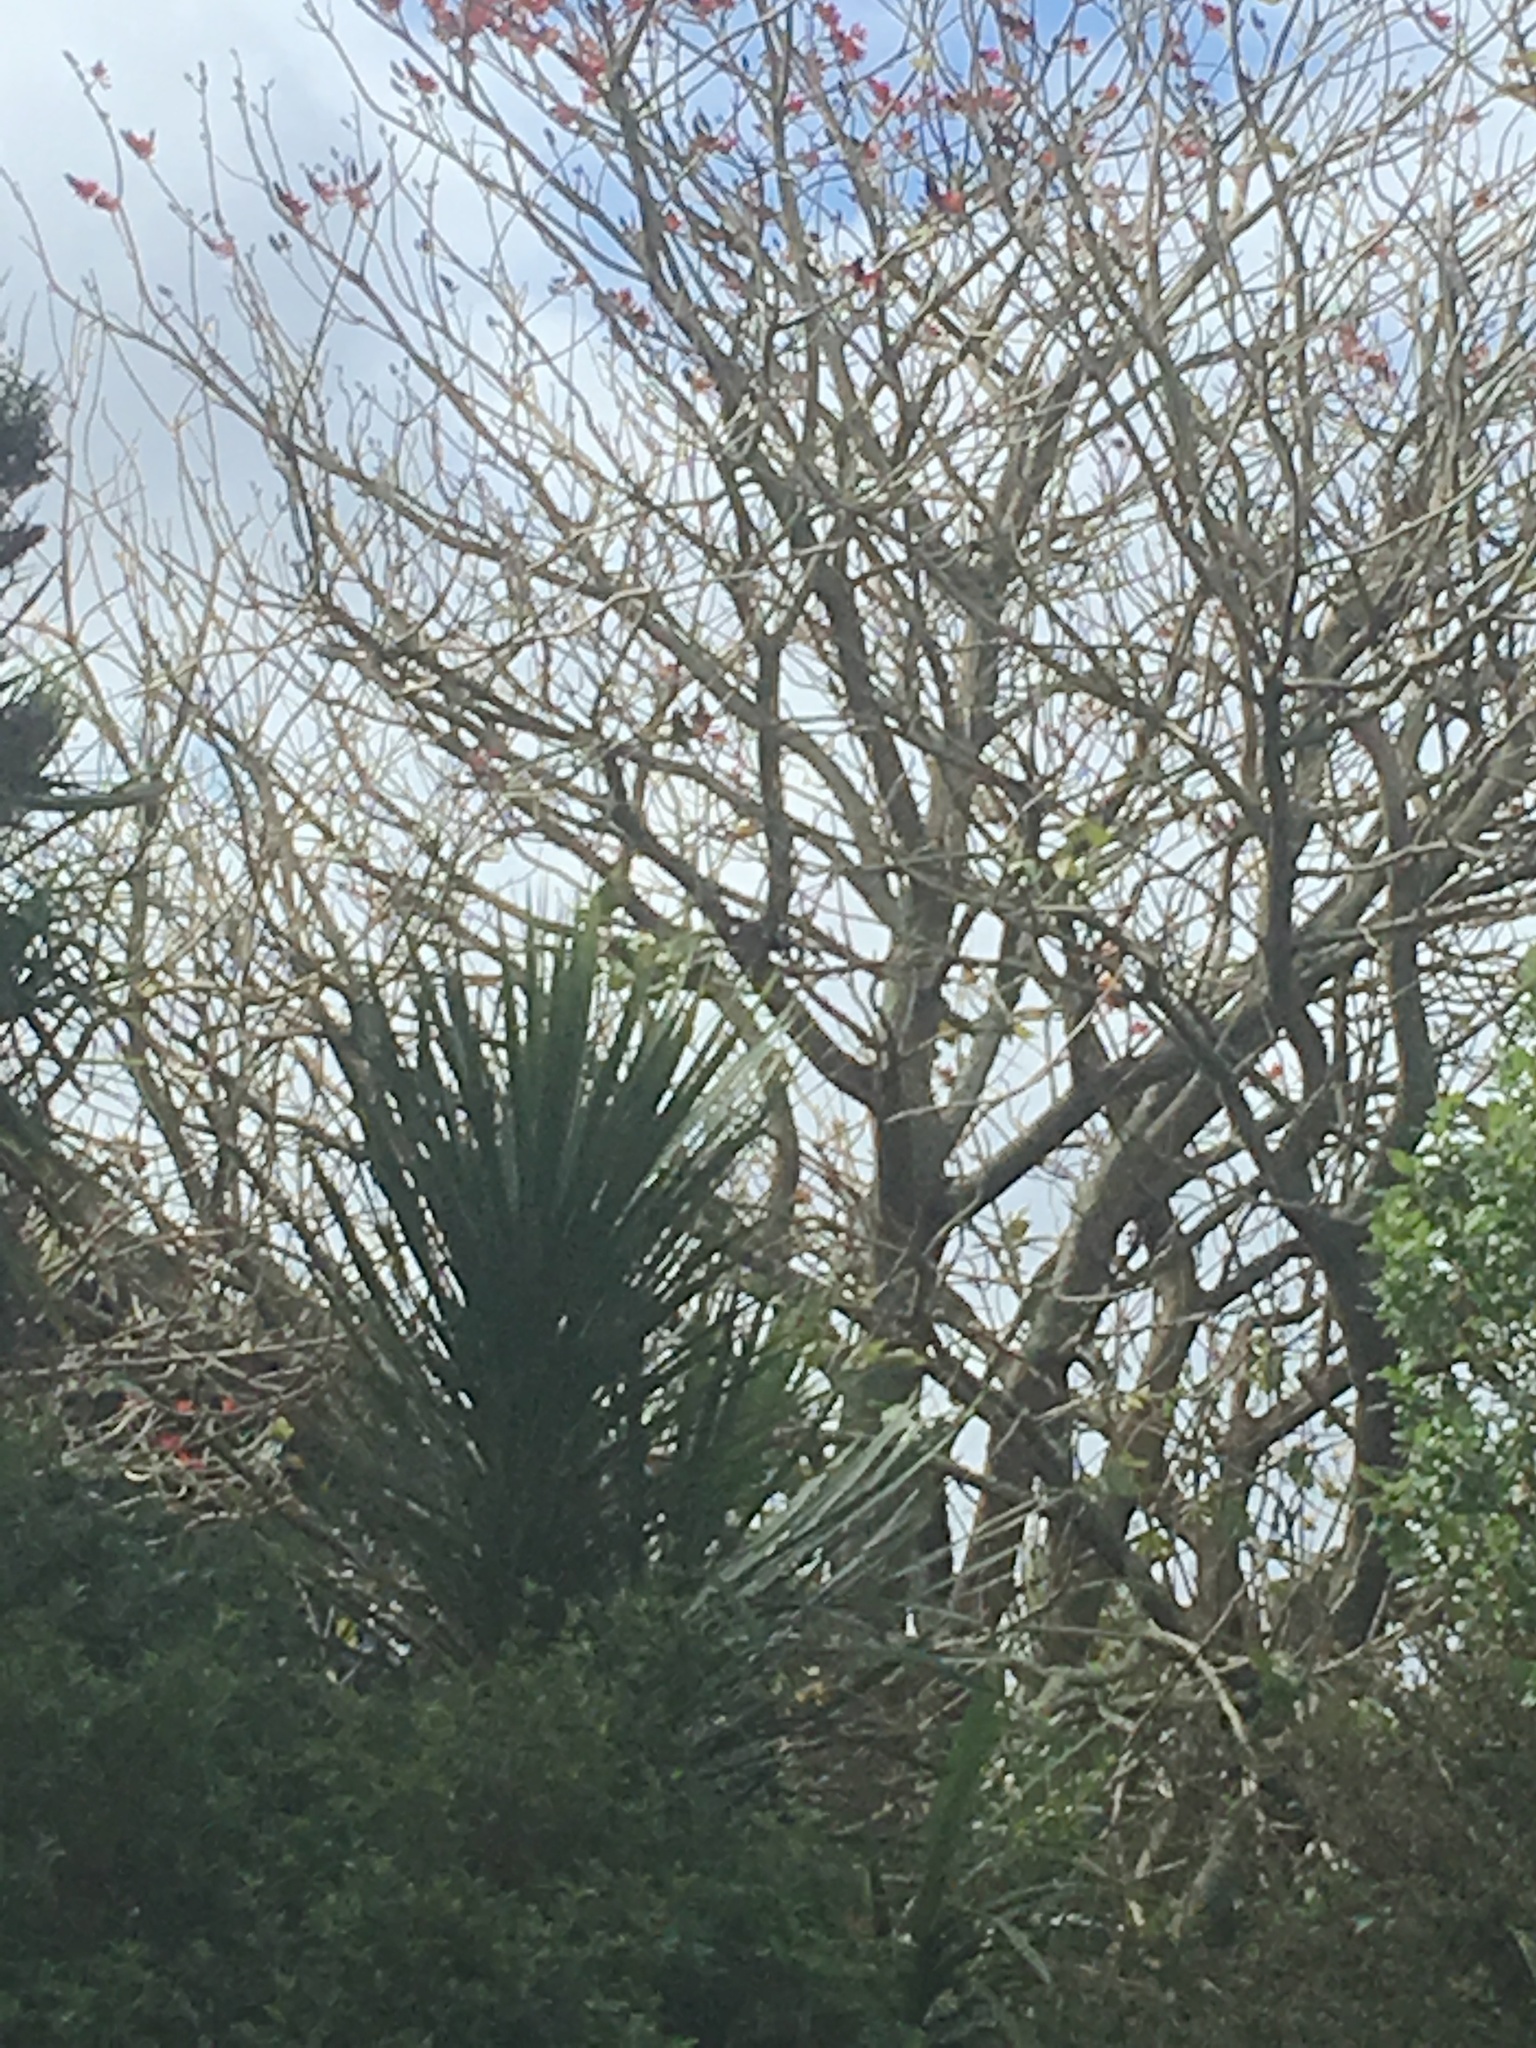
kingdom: Animalia
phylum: Chordata
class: Aves
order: Passeriformes
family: Meliphagidae
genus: Prosthemadera
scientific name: Prosthemadera novaeseelandiae
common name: Tui
